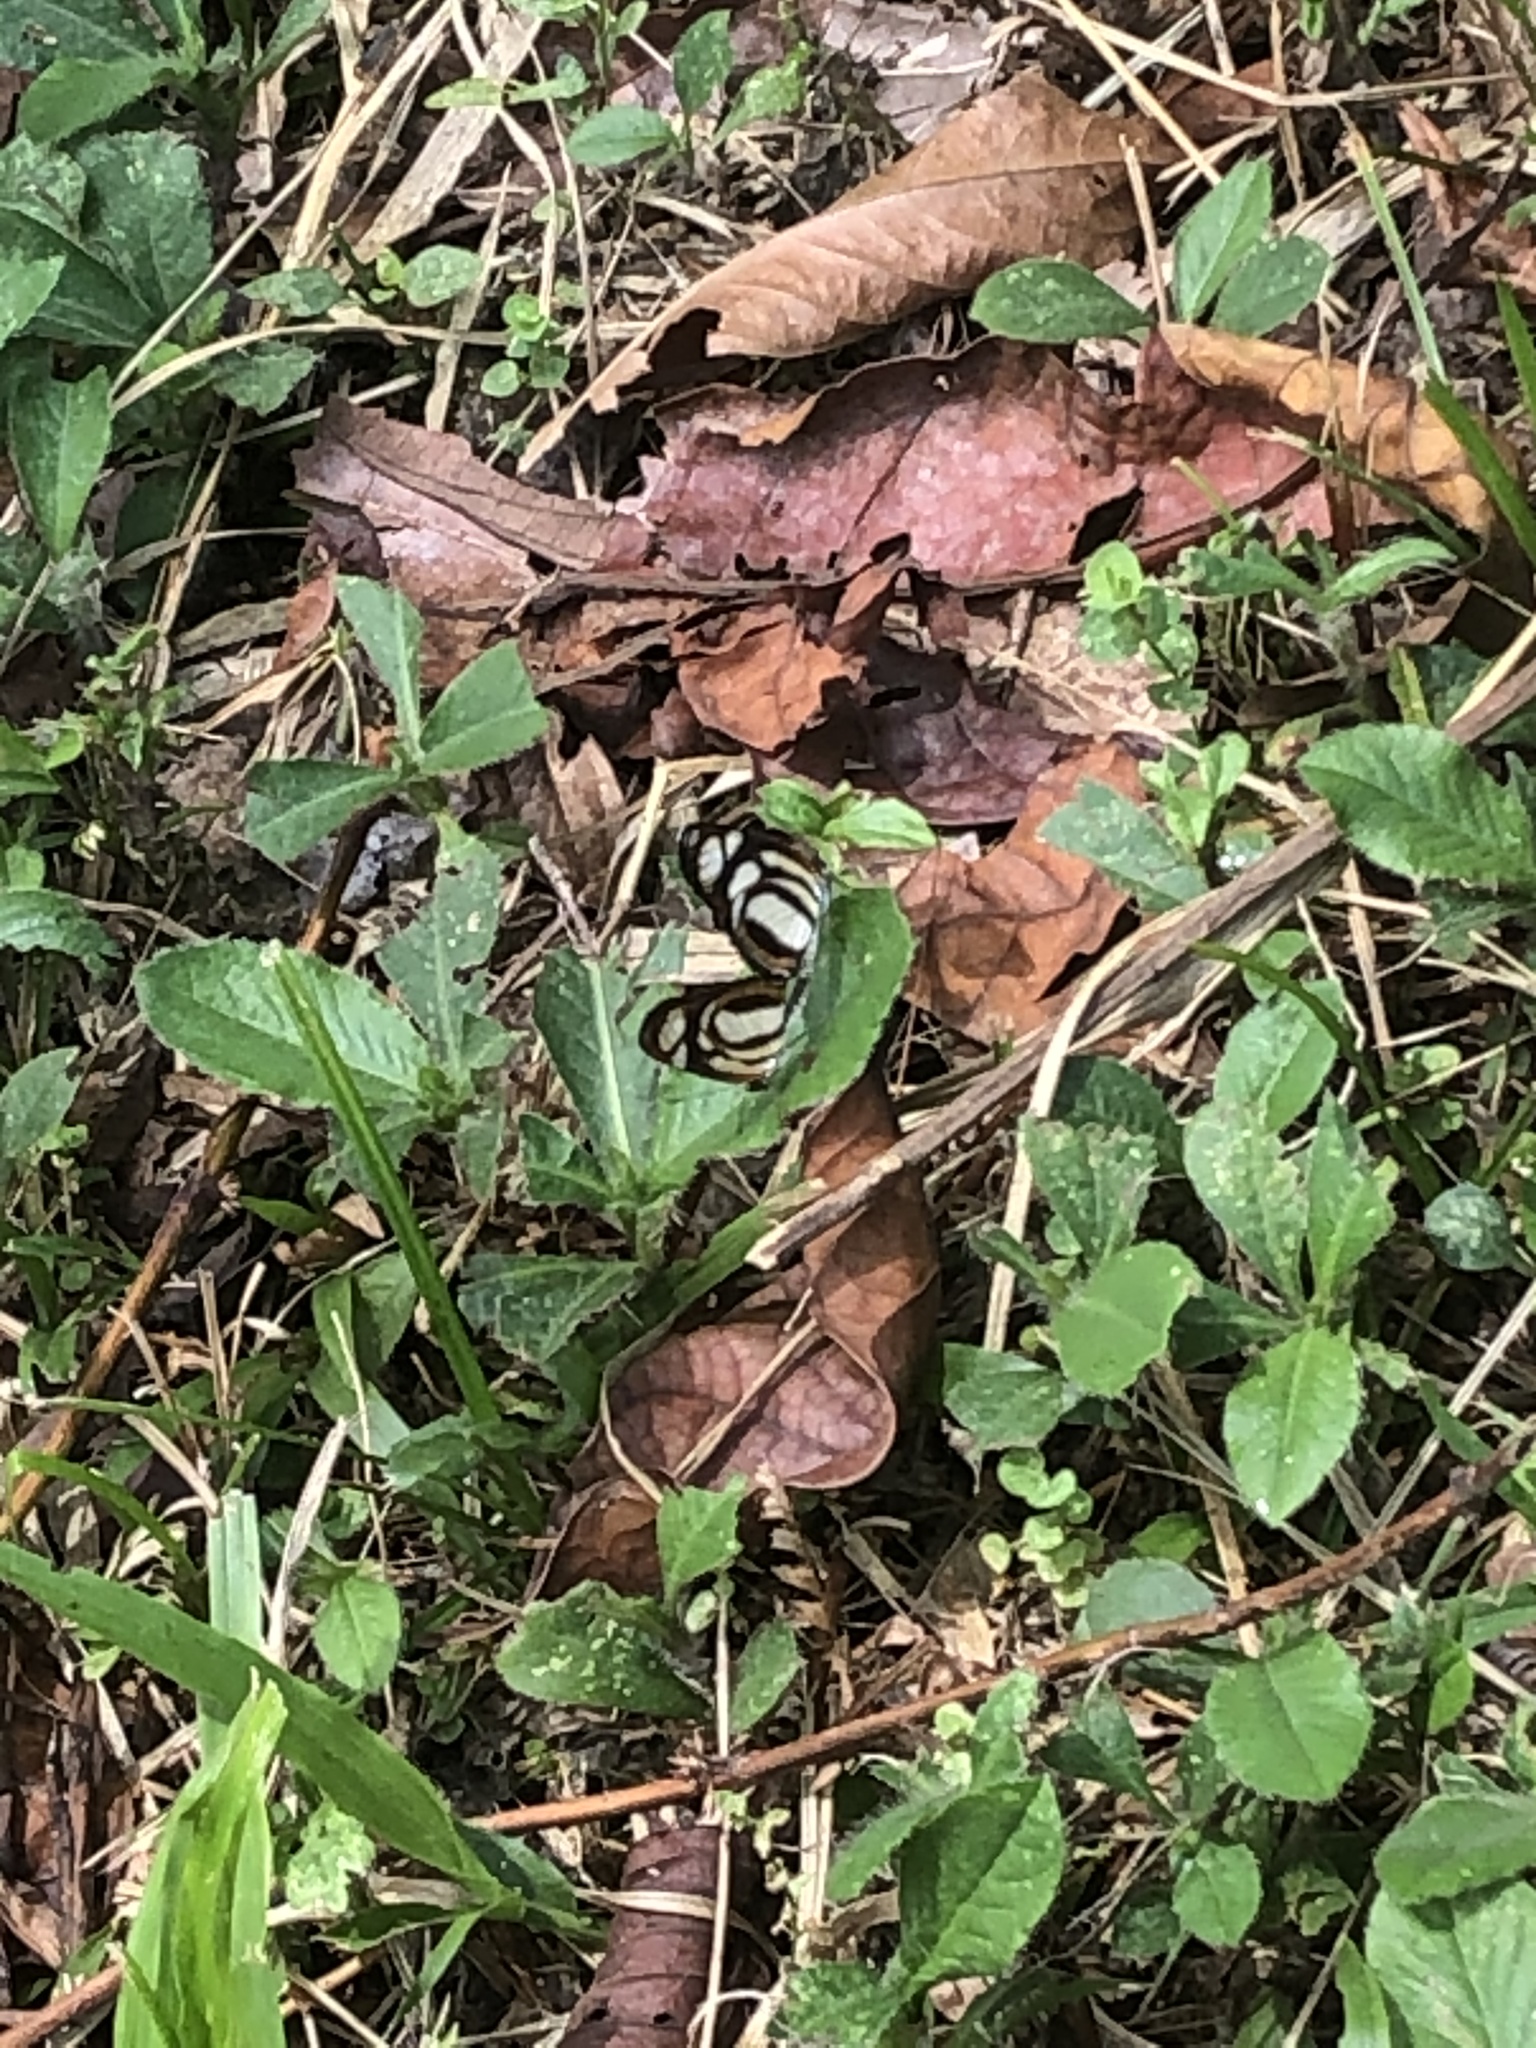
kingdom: Animalia
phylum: Arthropoda
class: Insecta
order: Lepidoptera
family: Nymphalidae
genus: Eresia
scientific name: Eresia clio
